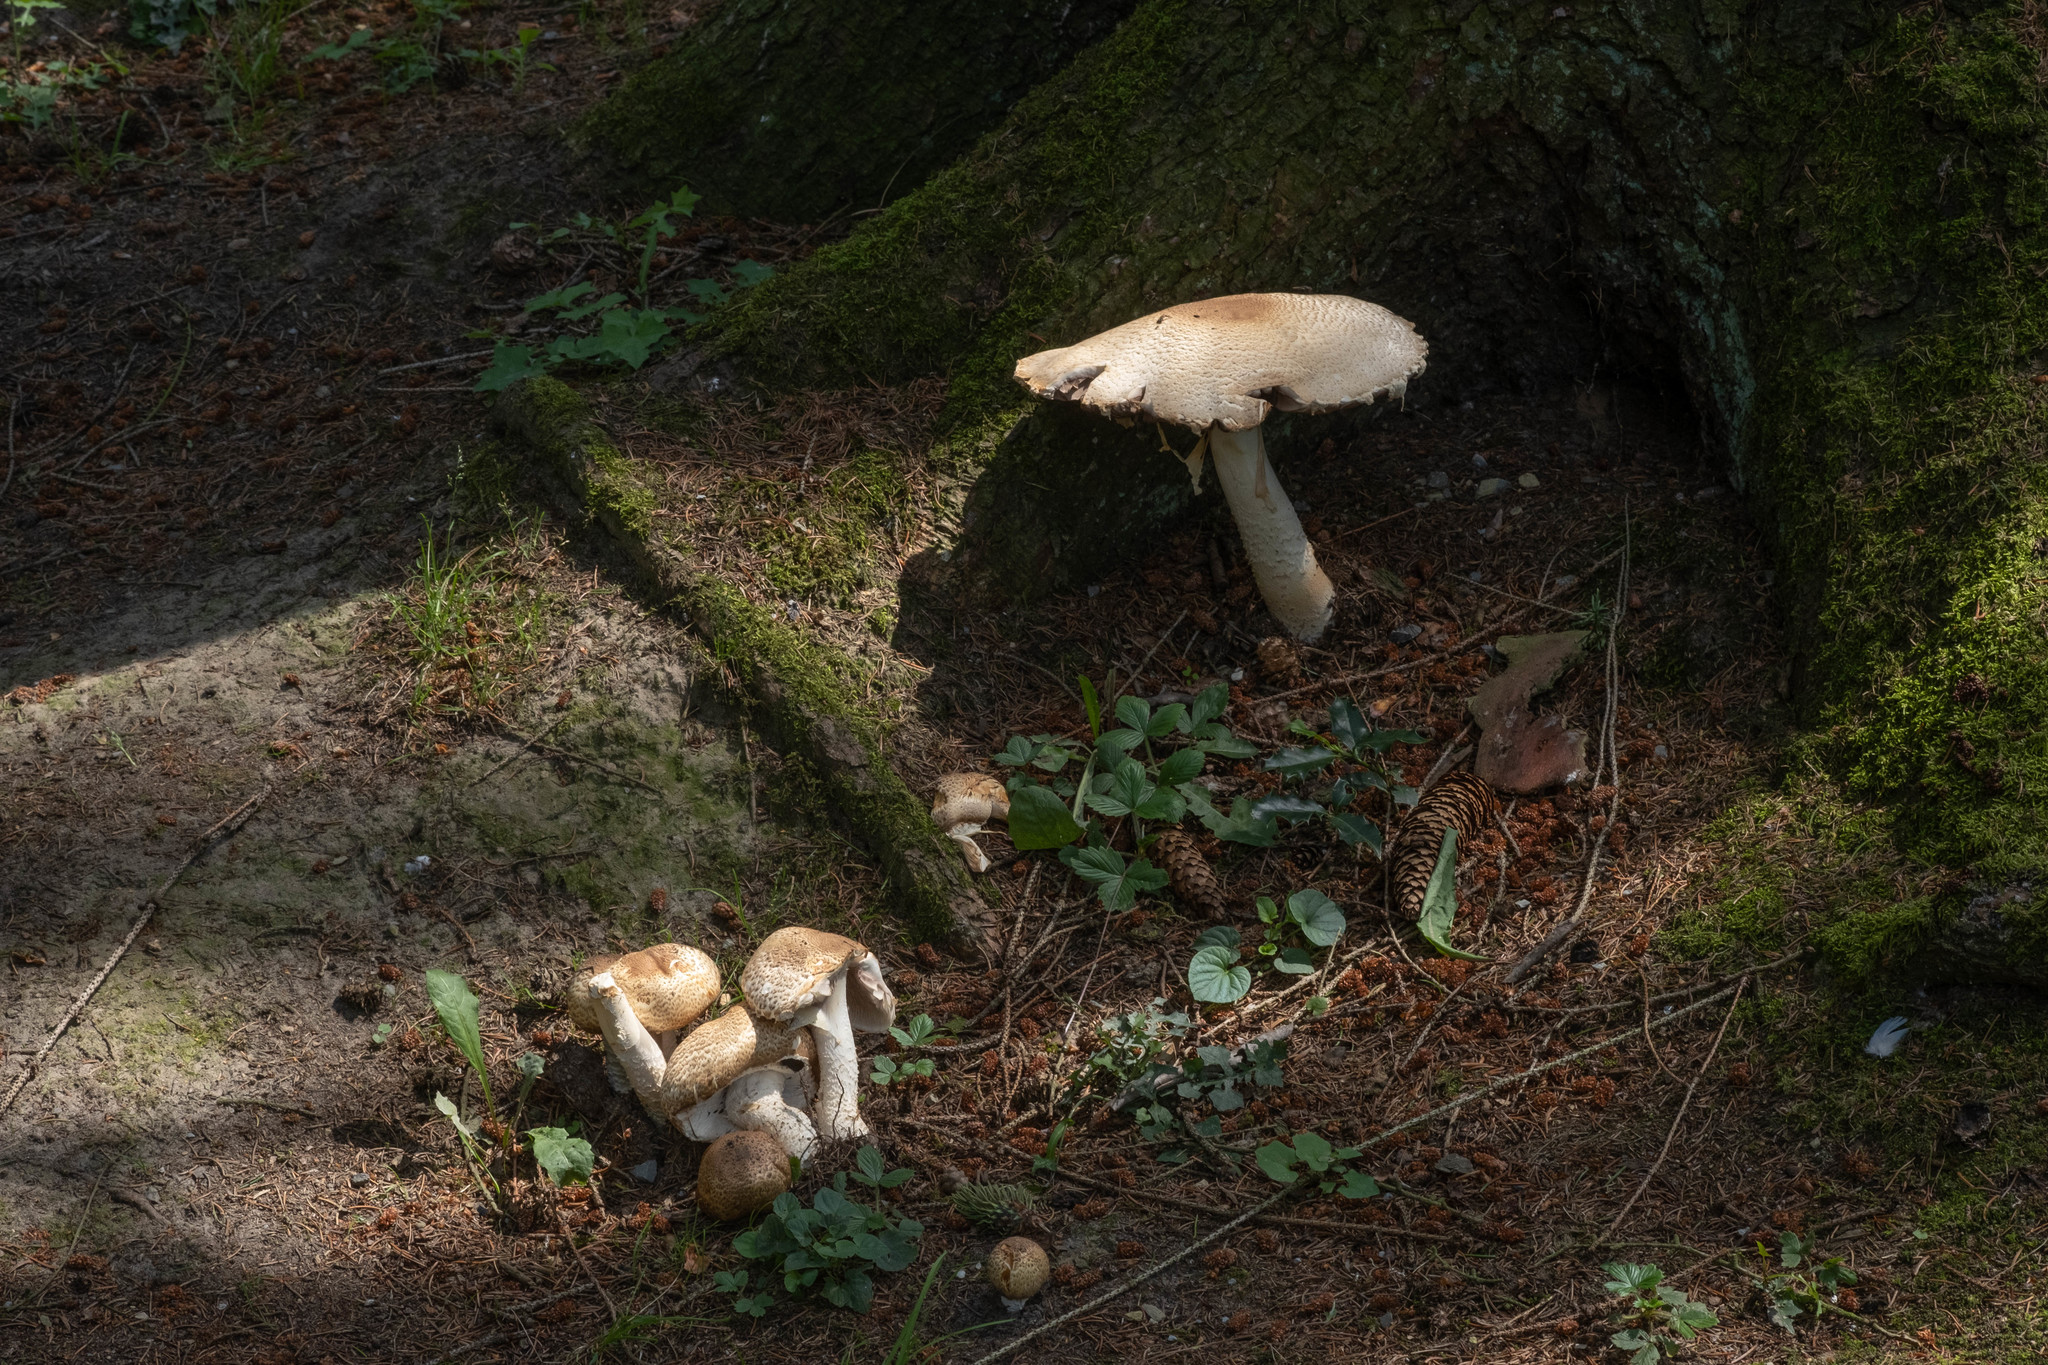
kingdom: Fungi
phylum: Basidiomycota
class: Agaricomycetes
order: Agaricales
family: Agaricaceae
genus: Agaricus
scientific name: Agaricus augustus
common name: Prince
